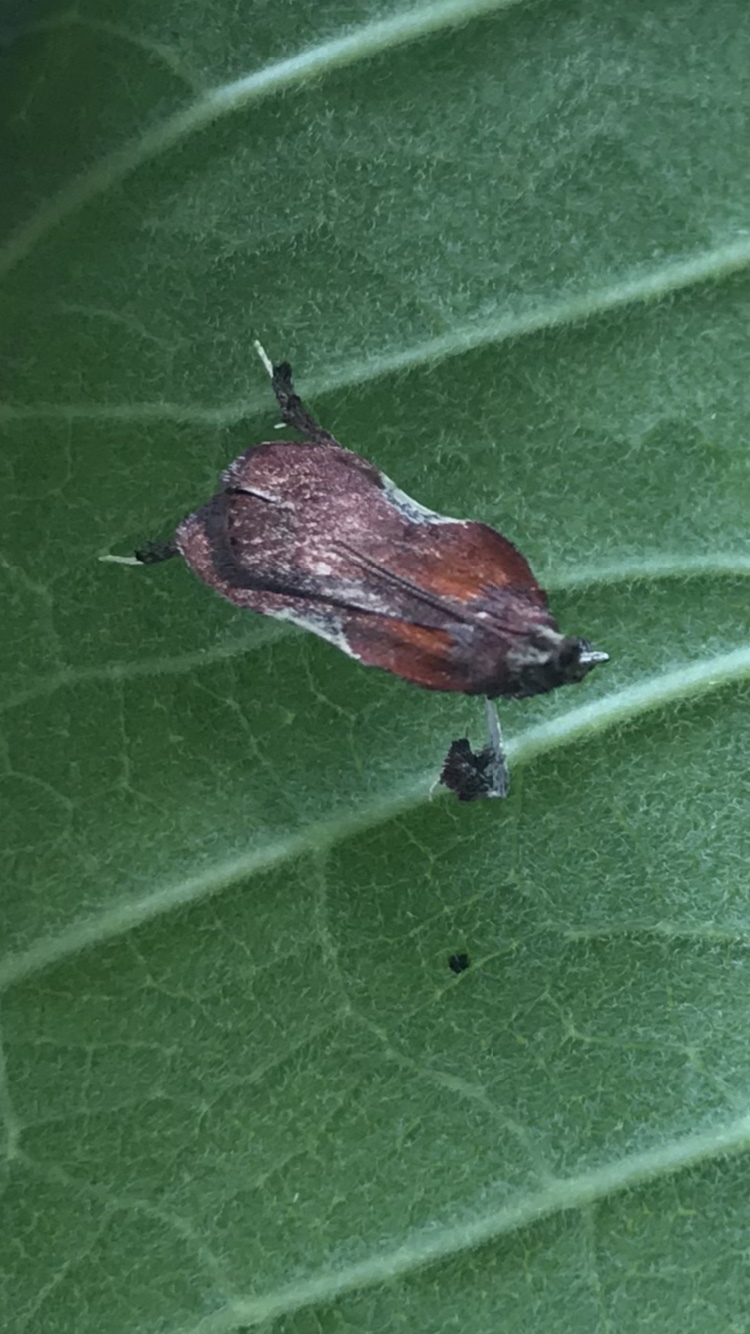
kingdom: Animalia
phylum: Arthropoda
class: Insecta
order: Lepidoptera
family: Pyralidae
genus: Galasa
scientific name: Galasa nigrinodis
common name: Boxwood leaftier moth
